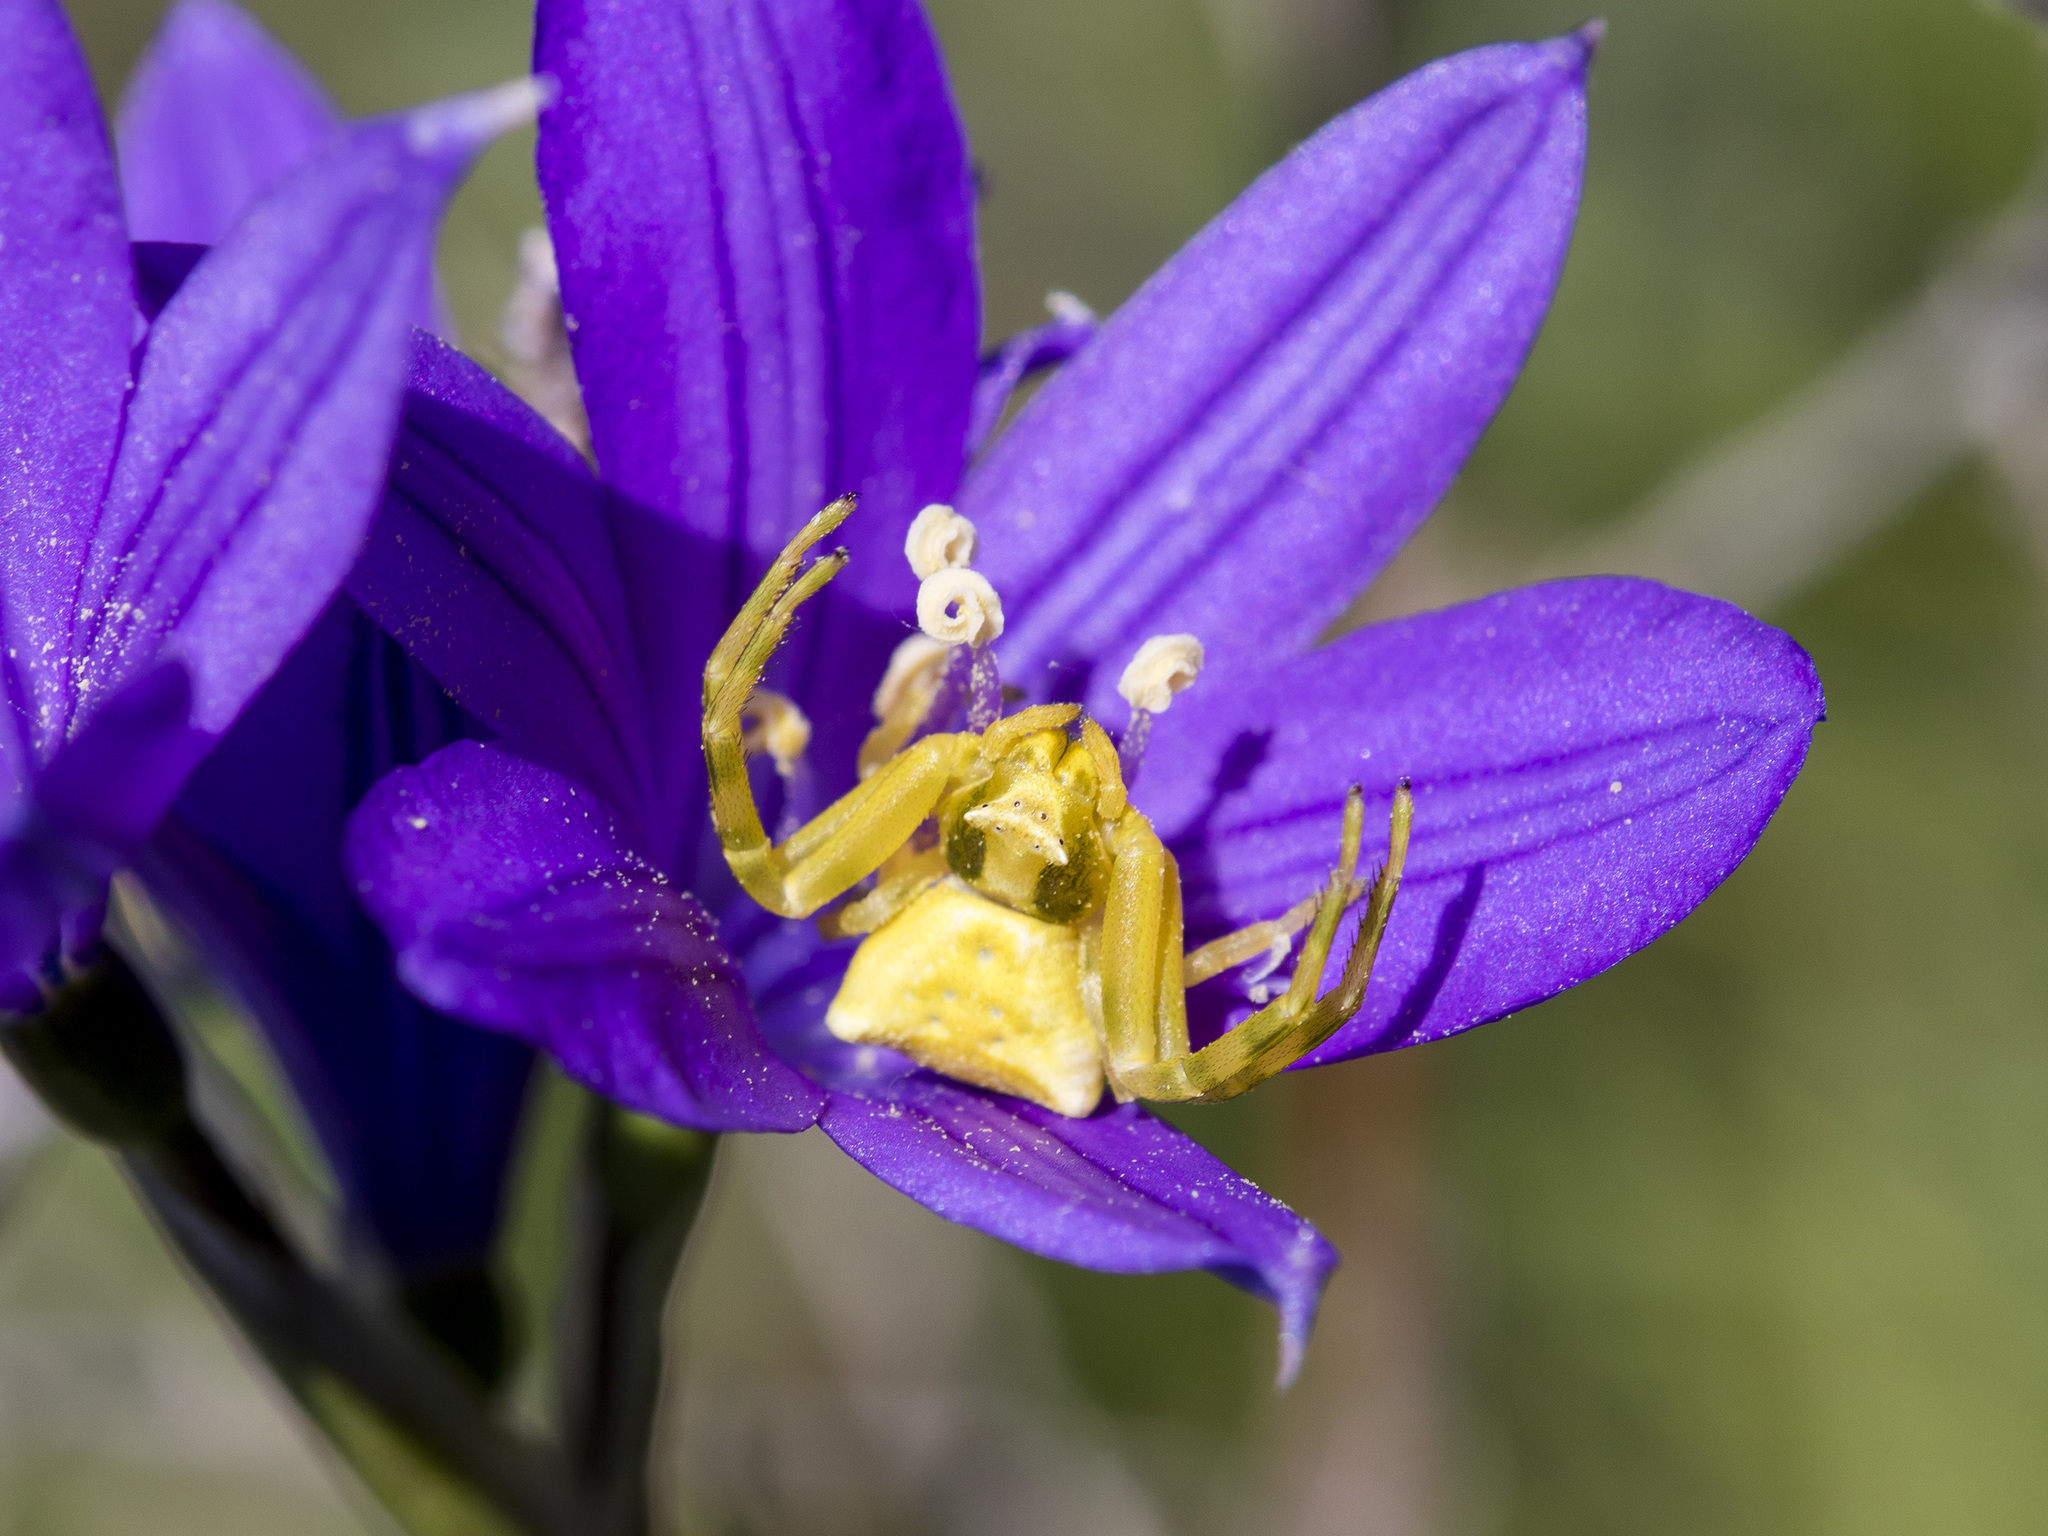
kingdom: Animalia
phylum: Arthropoda
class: Arachnida
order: Araneae
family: Thomisidae
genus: Thomisus
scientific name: Thomisus onustus
